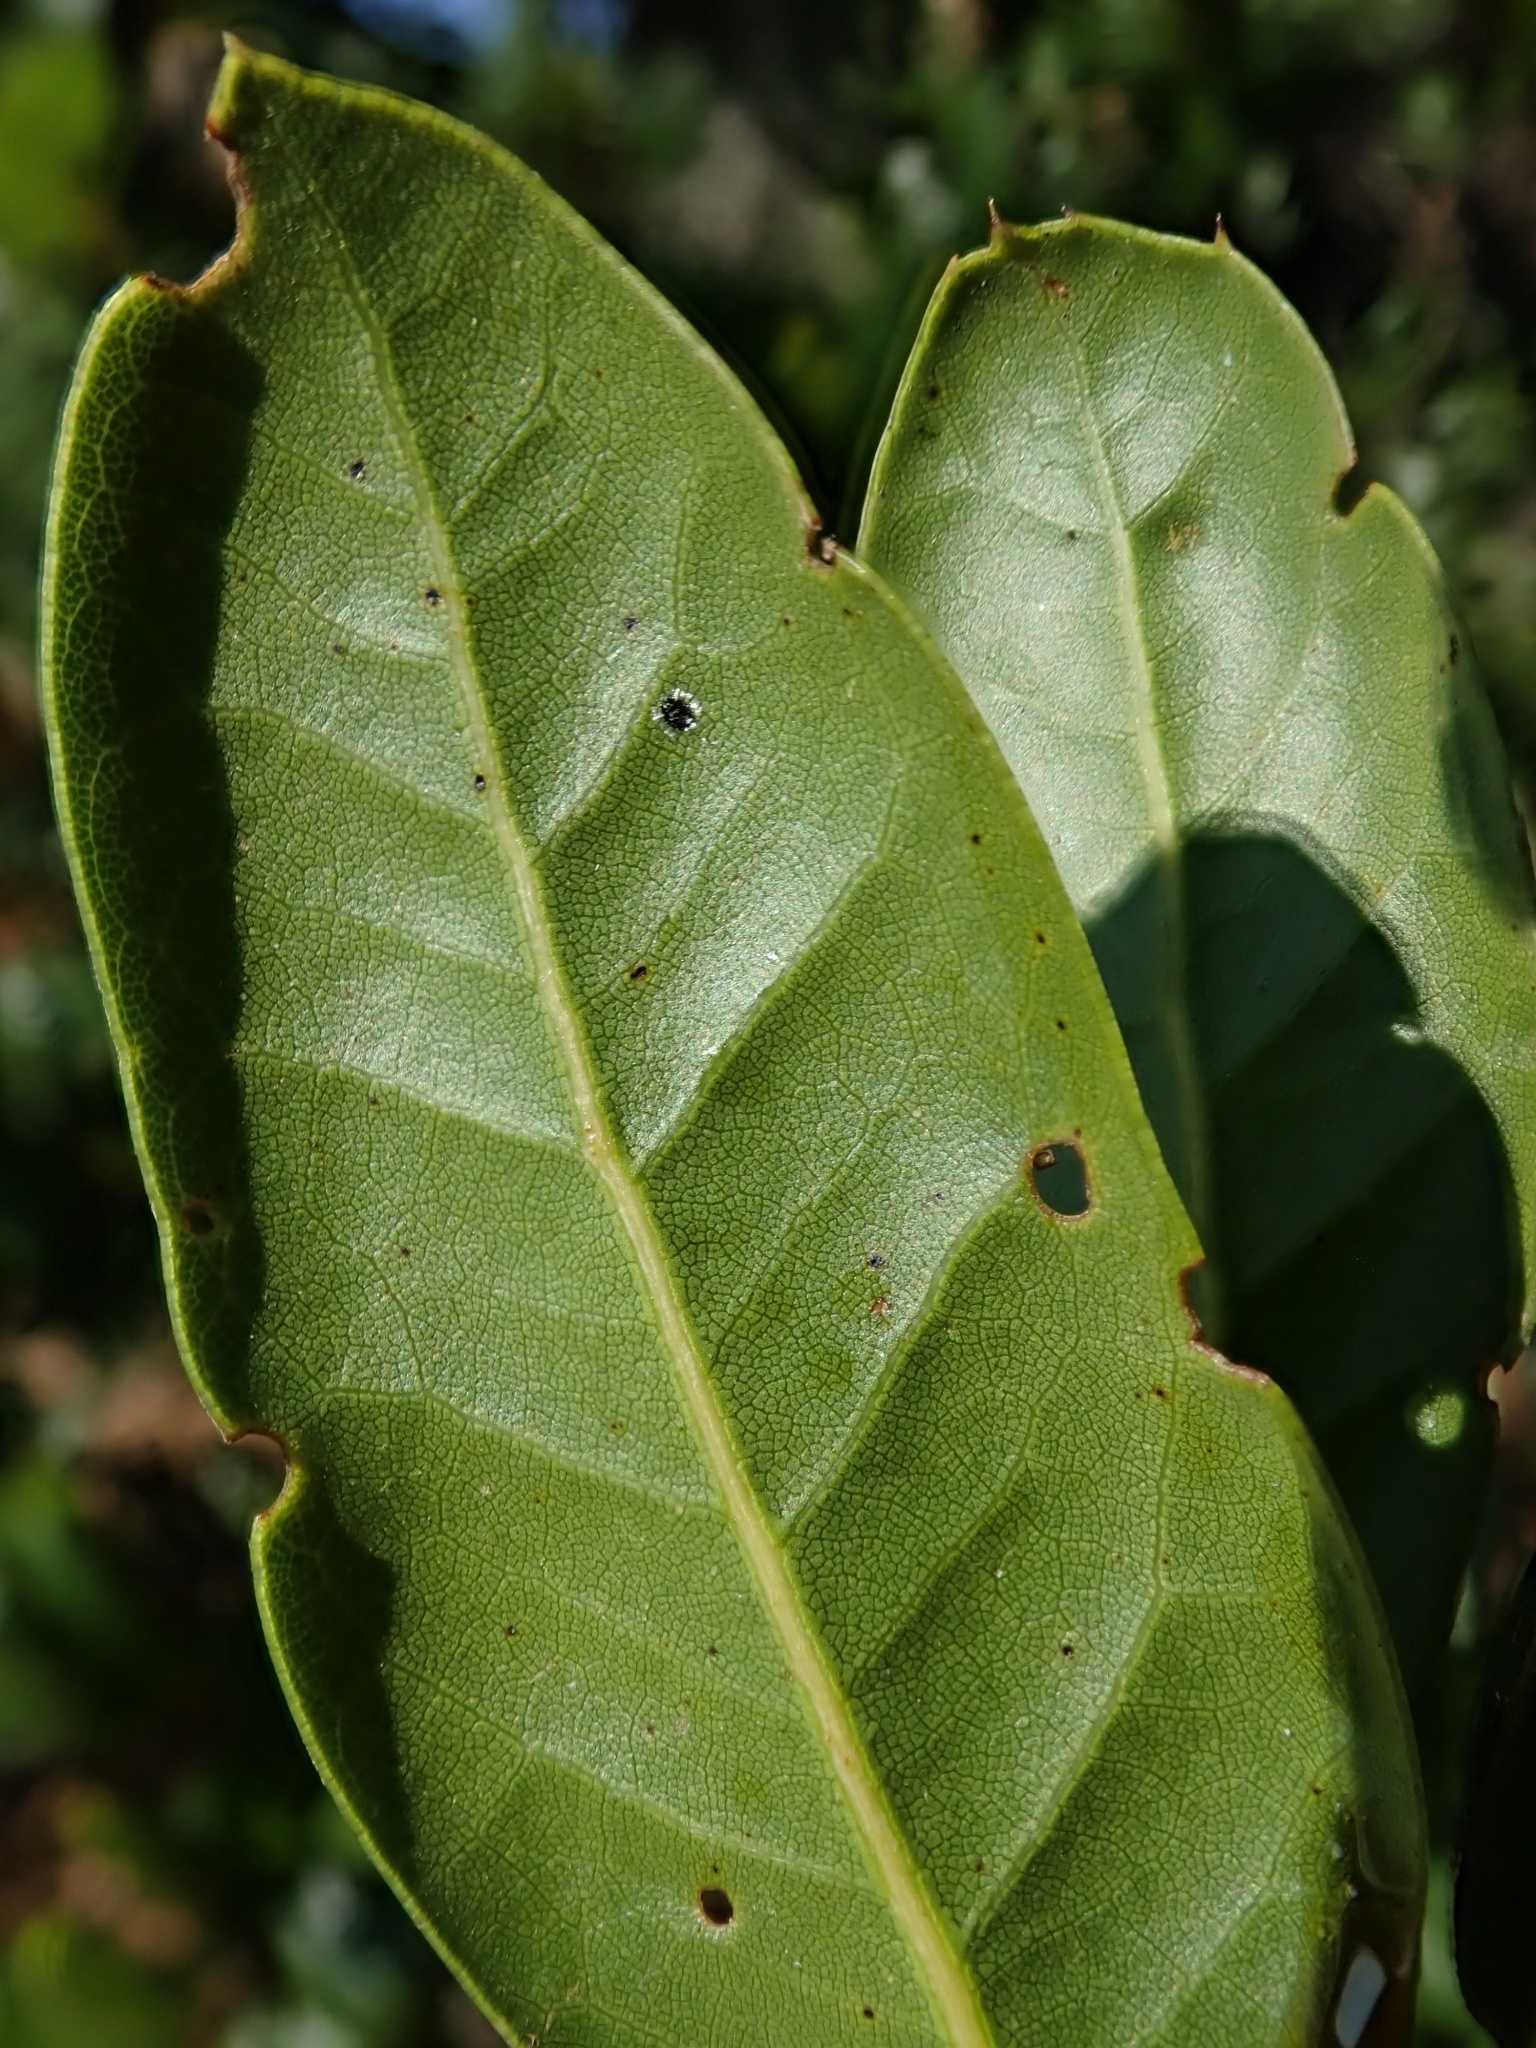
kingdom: Plantae
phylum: Tracheophyta
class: Magnoliopsida
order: Fagales
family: Fagaceae
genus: Quercus
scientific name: Quercus parvula
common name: Santa cruz island oak
